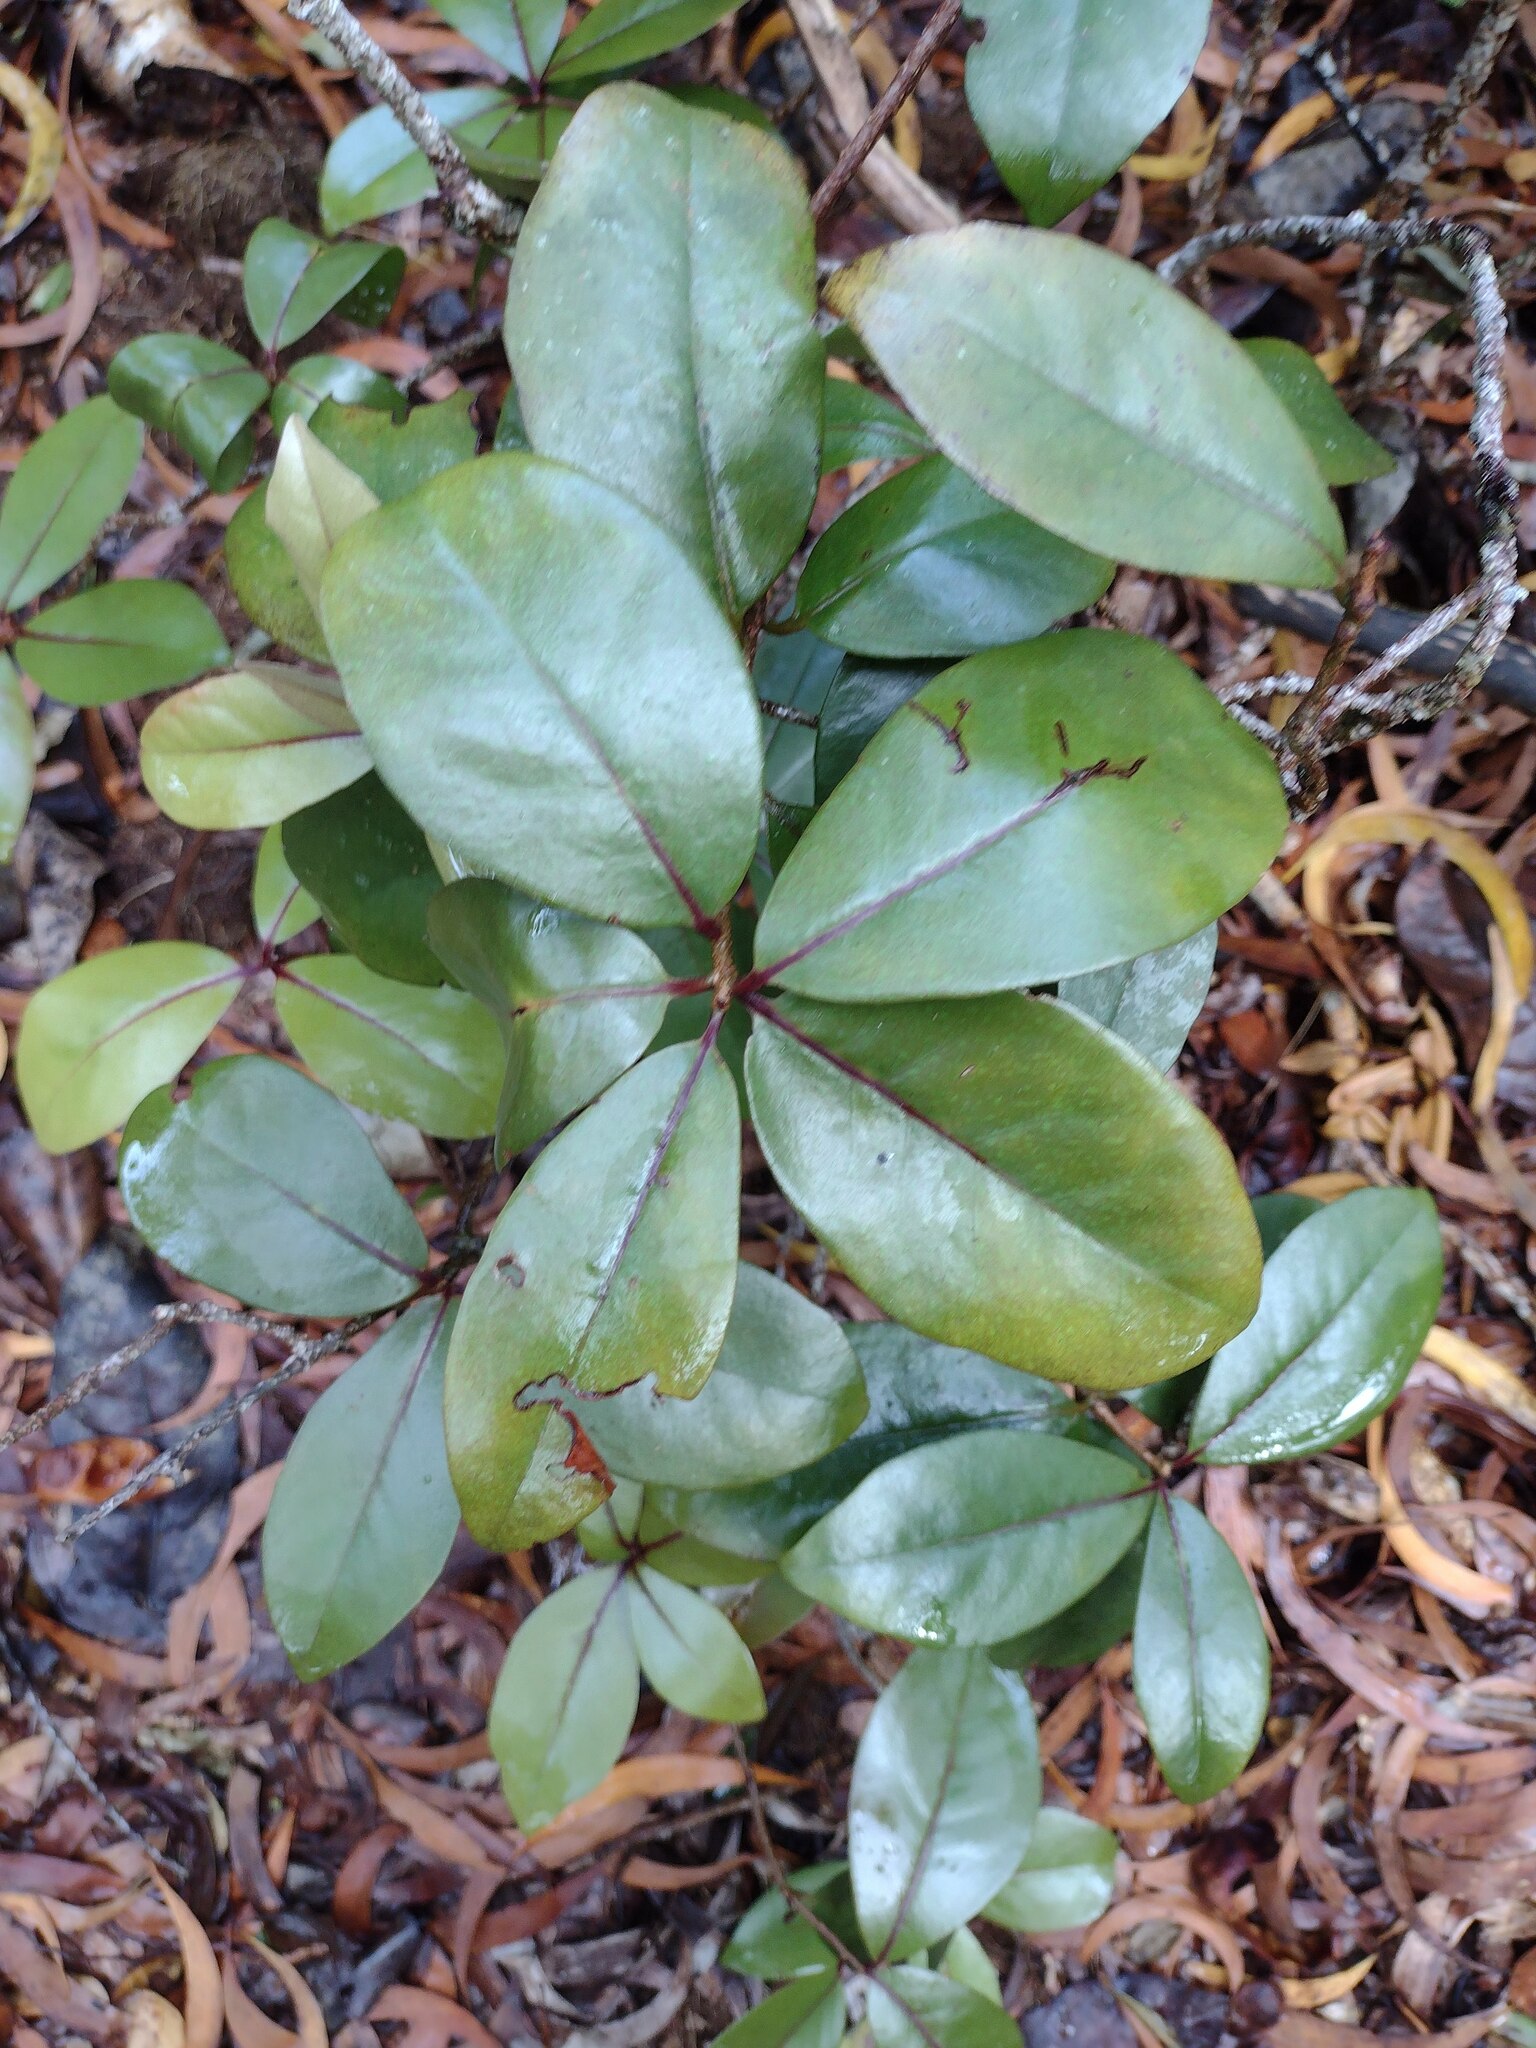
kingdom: Plantae
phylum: Tracheophyta
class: Magnoliopsida
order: Ericales
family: Primulaceae
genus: Embelia
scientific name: Embelia pacifica
